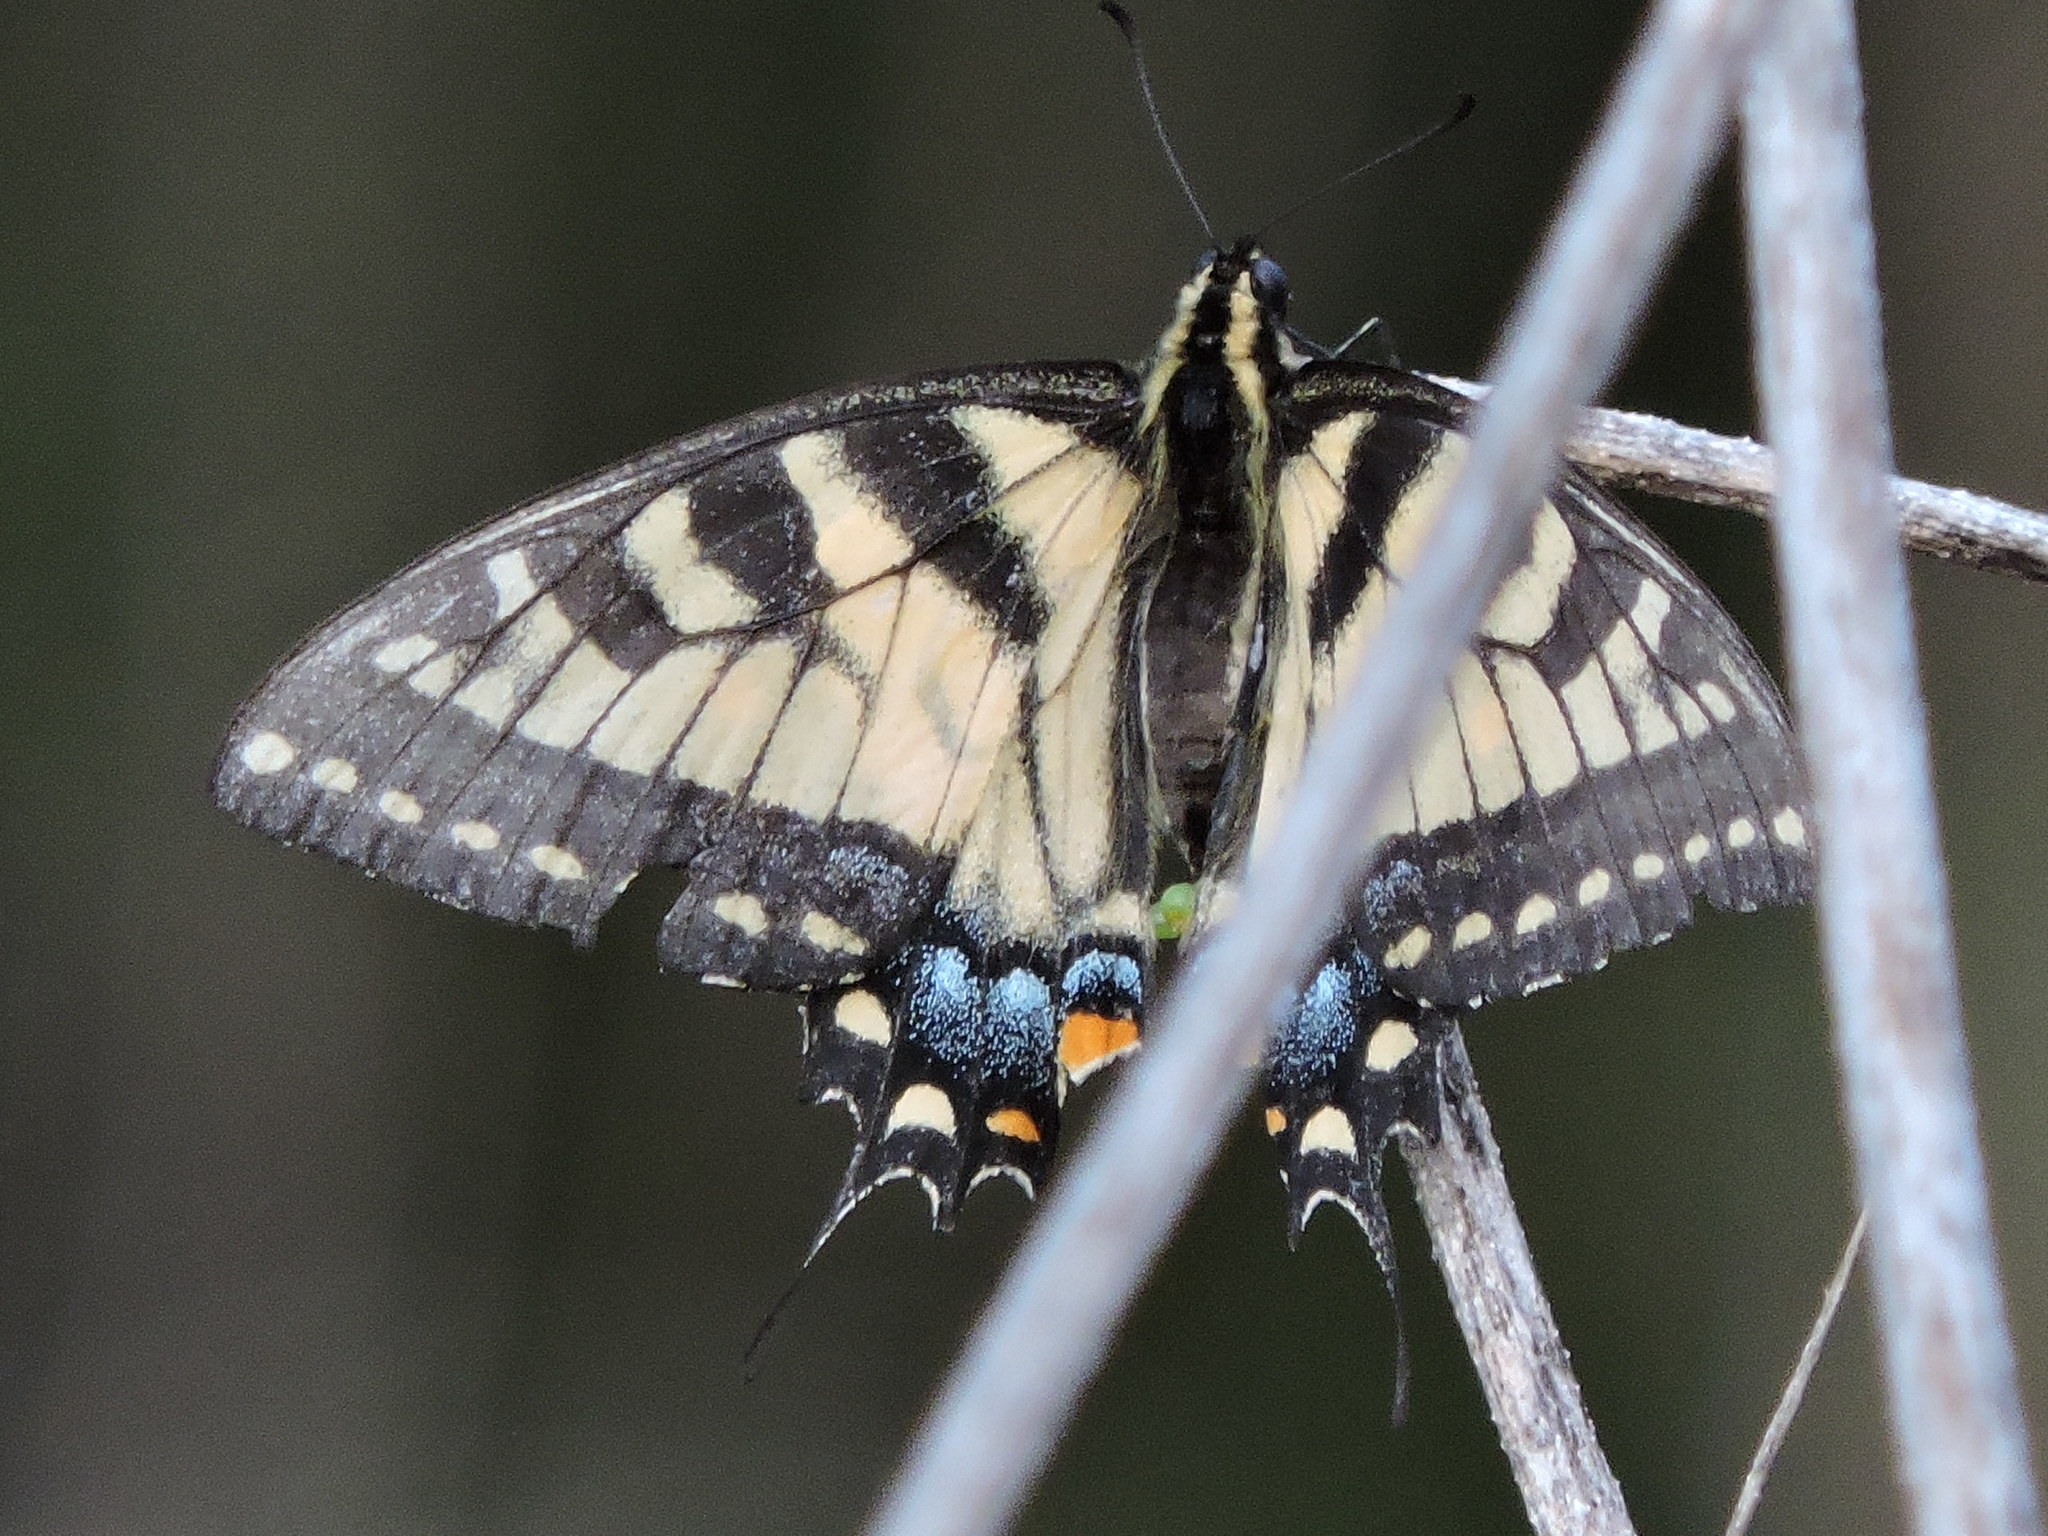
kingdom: Animalia
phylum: Arthropoda
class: Insecta
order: Lepidoptera
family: Papilionidae
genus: Papilio
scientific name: Papilio glaucus
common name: Tiger swallowtail
